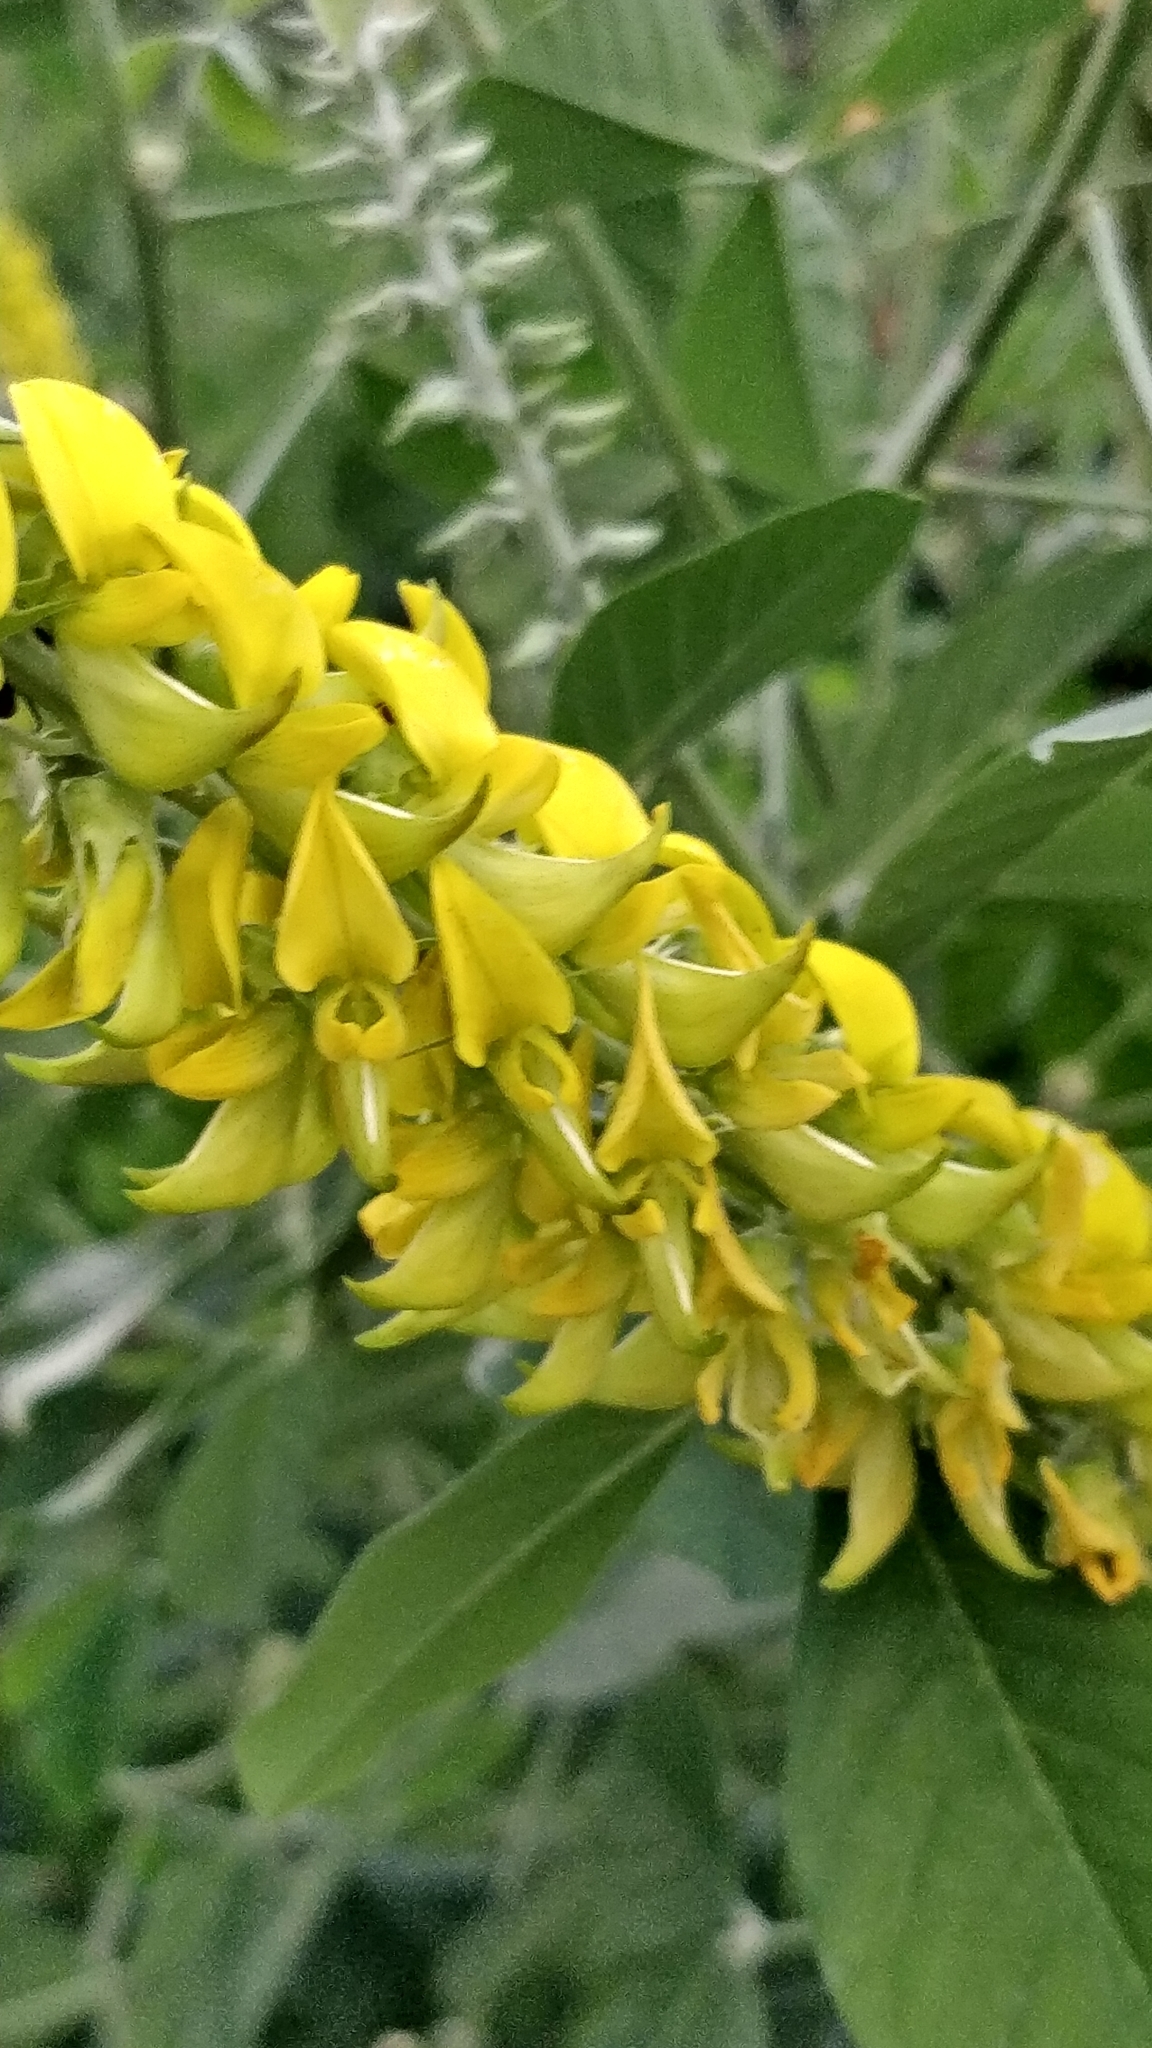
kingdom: Plantae
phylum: Tracheophyta
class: Magnoliopsida
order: Fabales
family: Fabaceae
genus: Crotalaria
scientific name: Crotalaria pallida
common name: Smooth rattlebox
